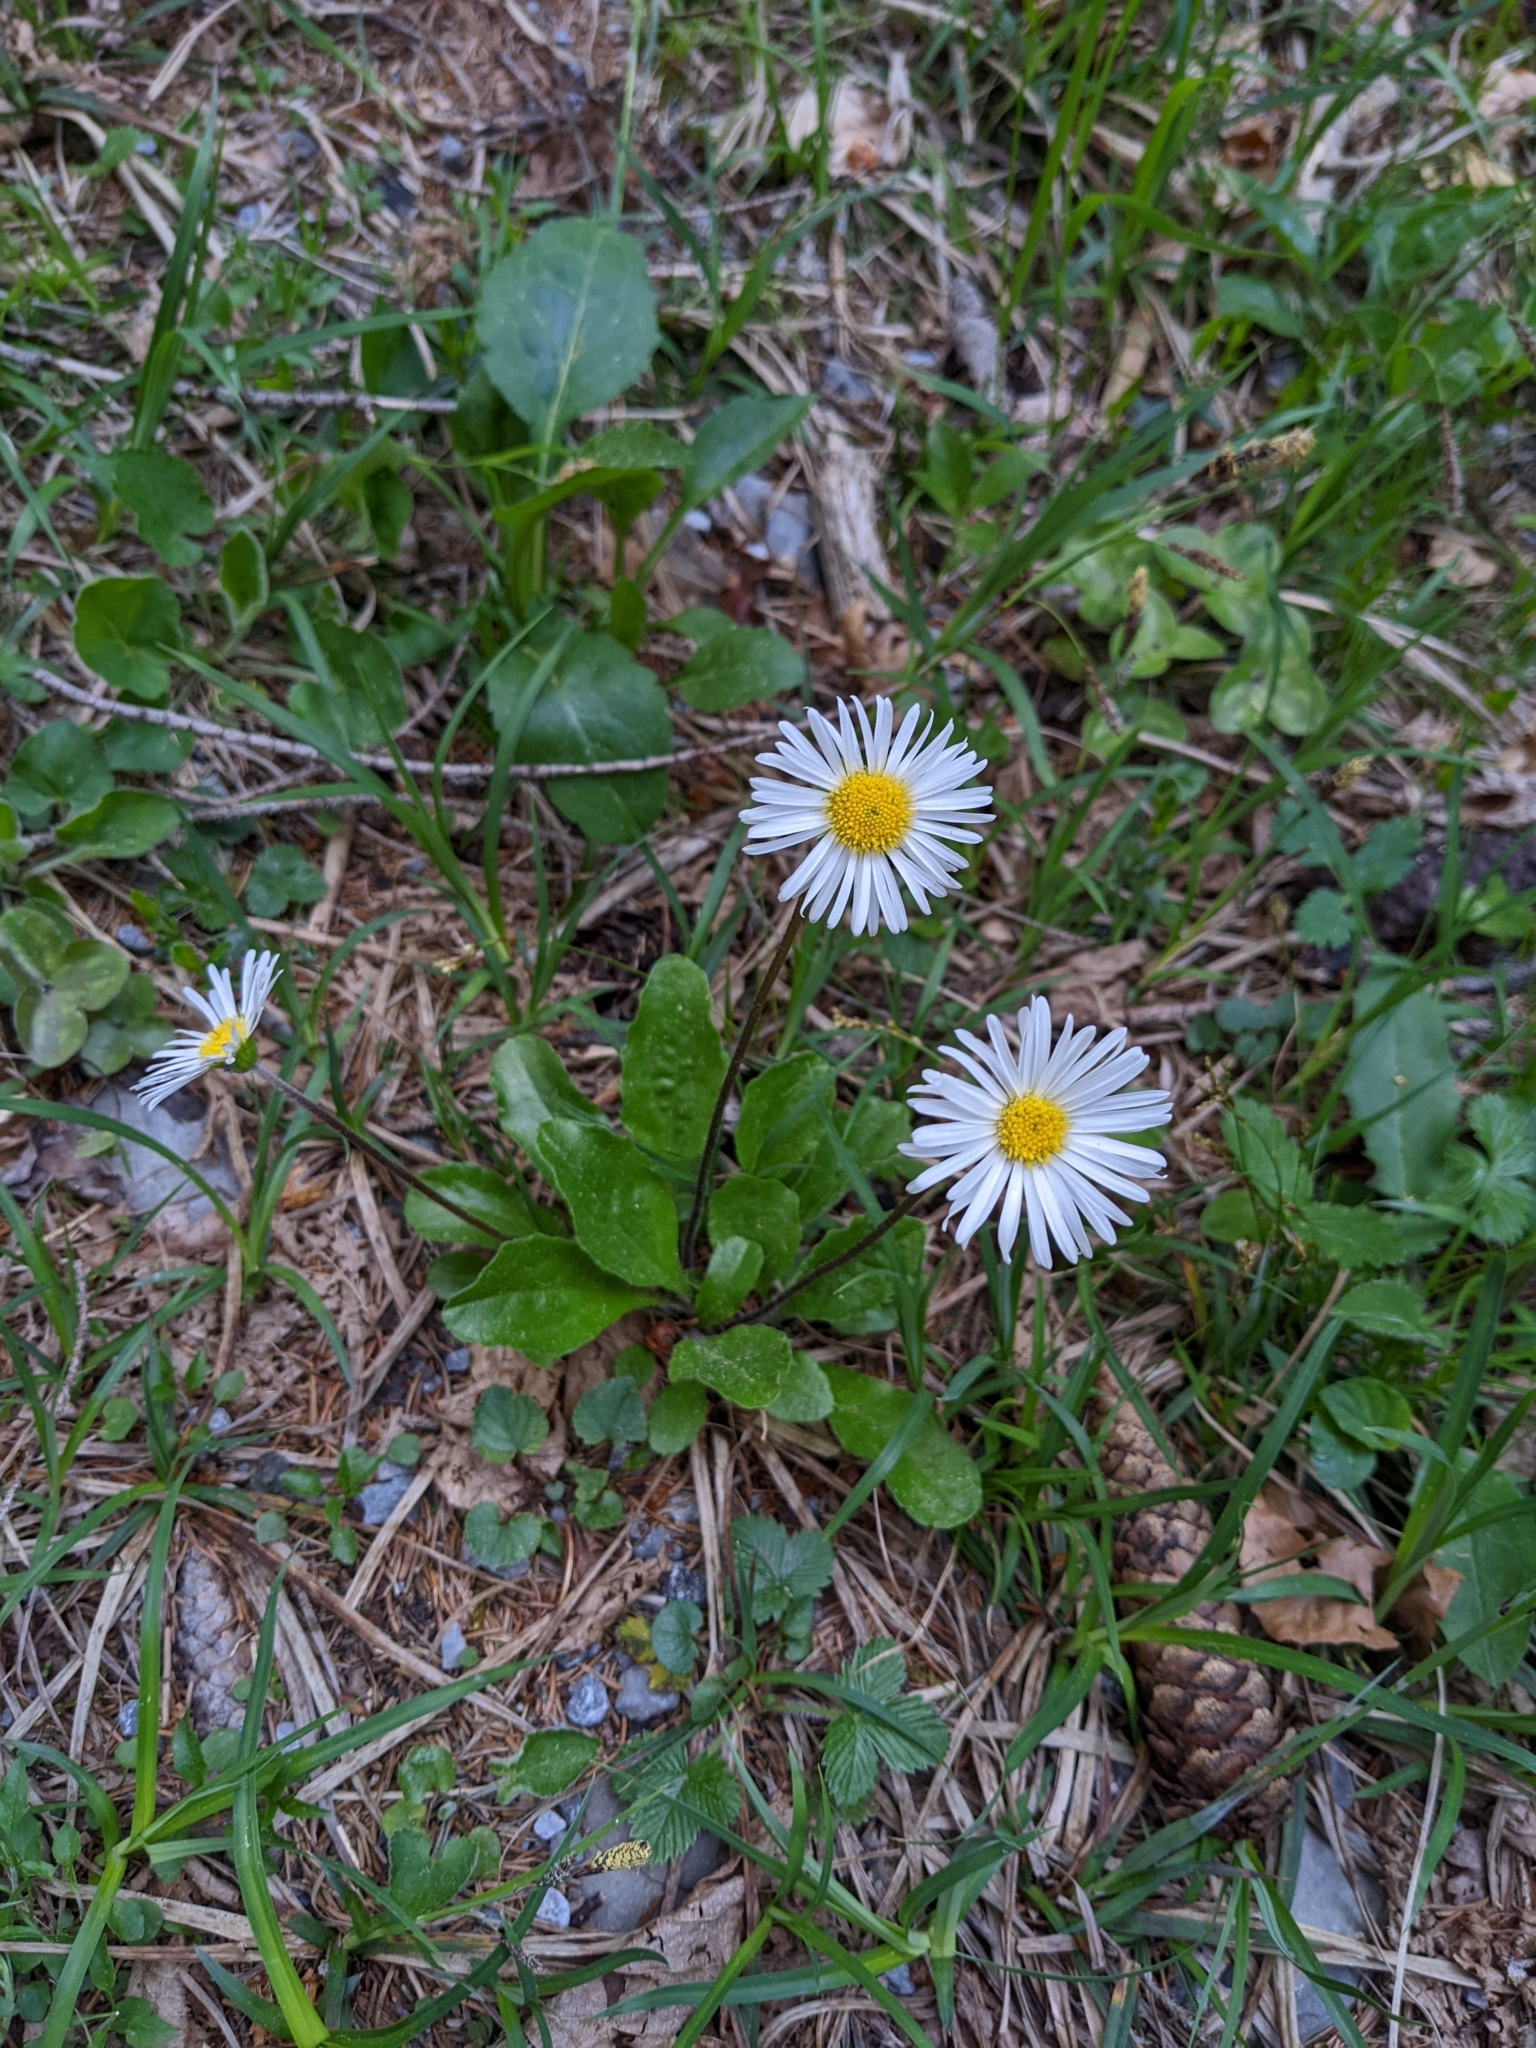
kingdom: Plantae
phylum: Tracheophyta
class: Magnoliopsida
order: Asterales
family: Asteraceae
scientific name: Asteraceae
